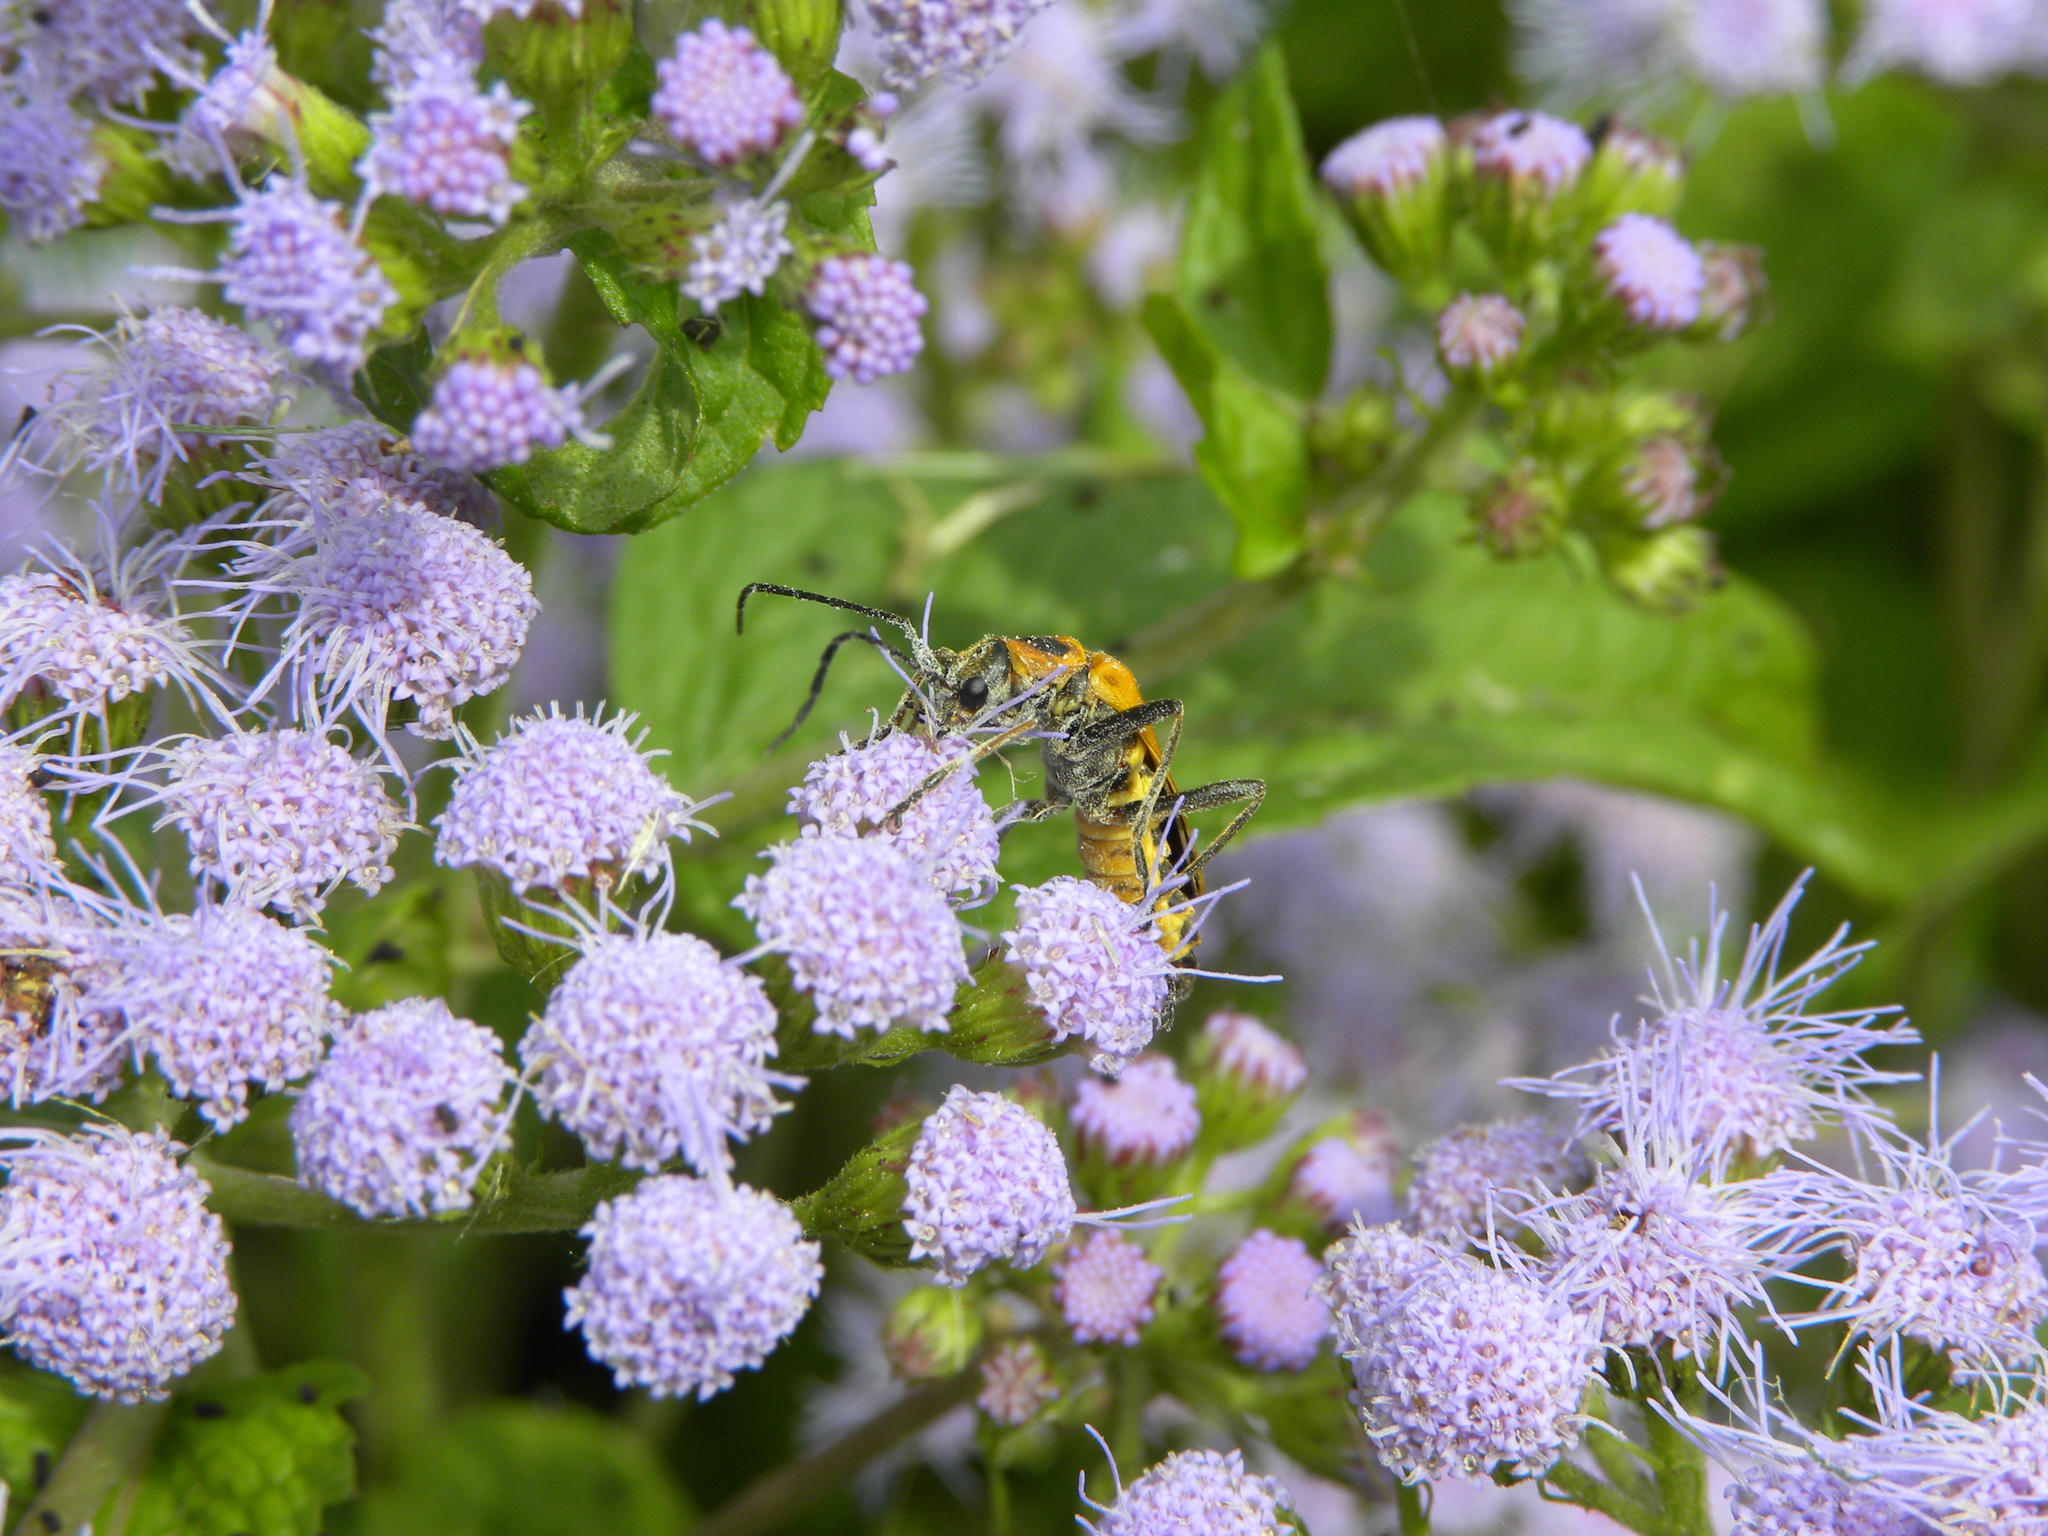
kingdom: Animalia
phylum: Arthropoda
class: Insecta
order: Coleoptera
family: Cantharidae
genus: Chauliognathus
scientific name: Chauliognathus pensylvanicus
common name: Goldenrod soldier beetle
